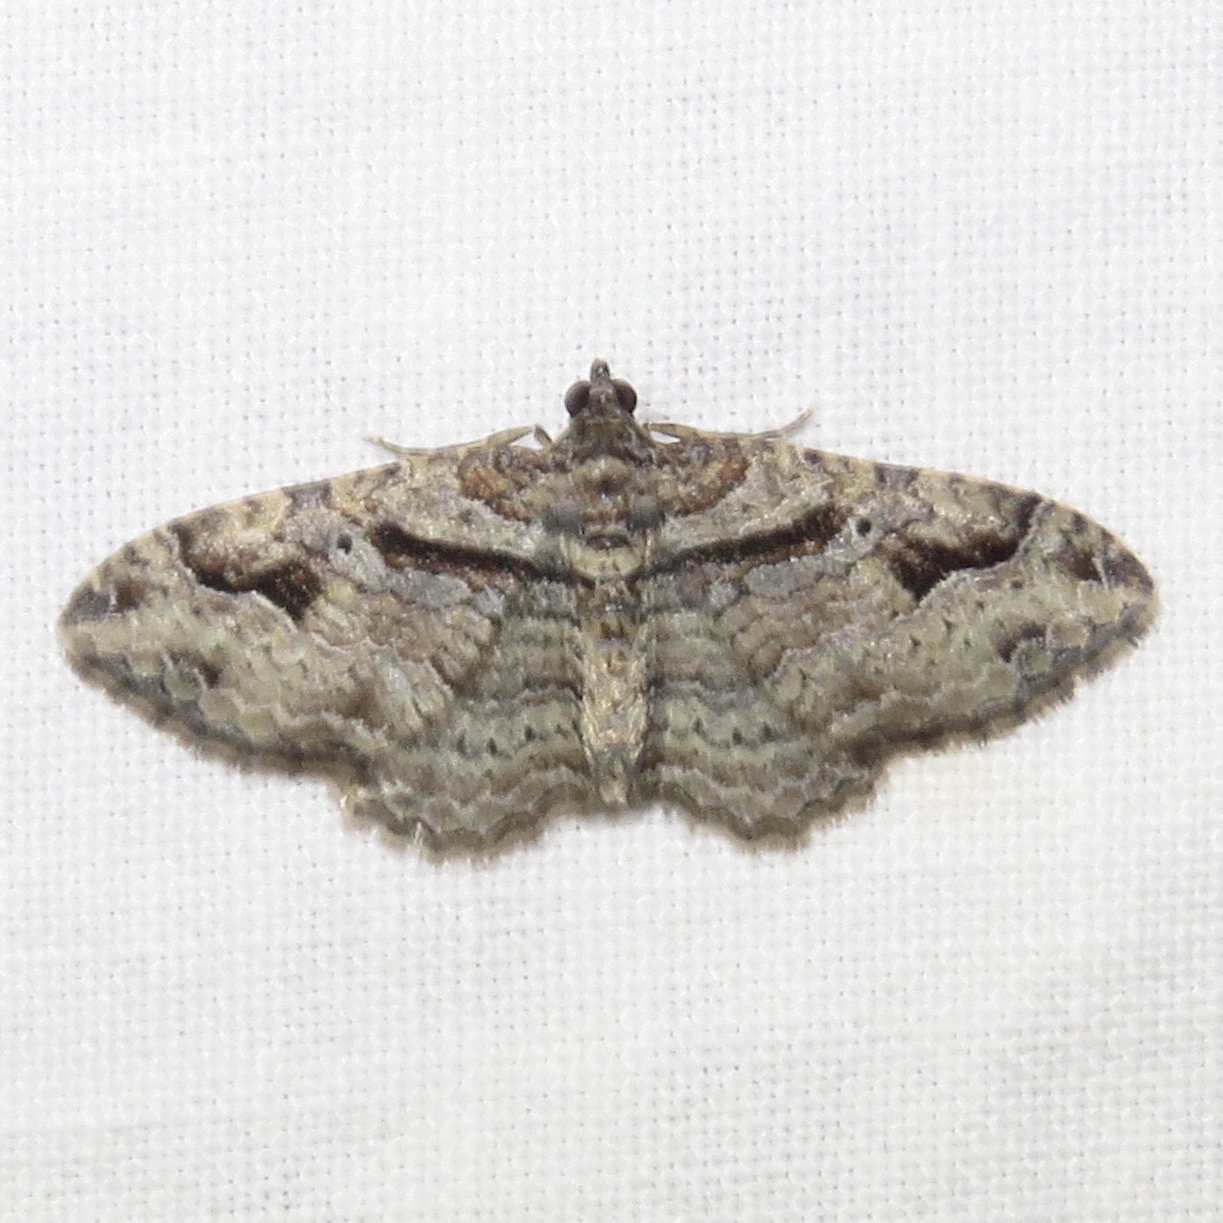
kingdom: Animalia
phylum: Arthropoda
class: Insecta
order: Lepidoptera
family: Geometridae
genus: Costaconvexa
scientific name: Costaconvexa centrostrigaria
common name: Bent-line carpet
